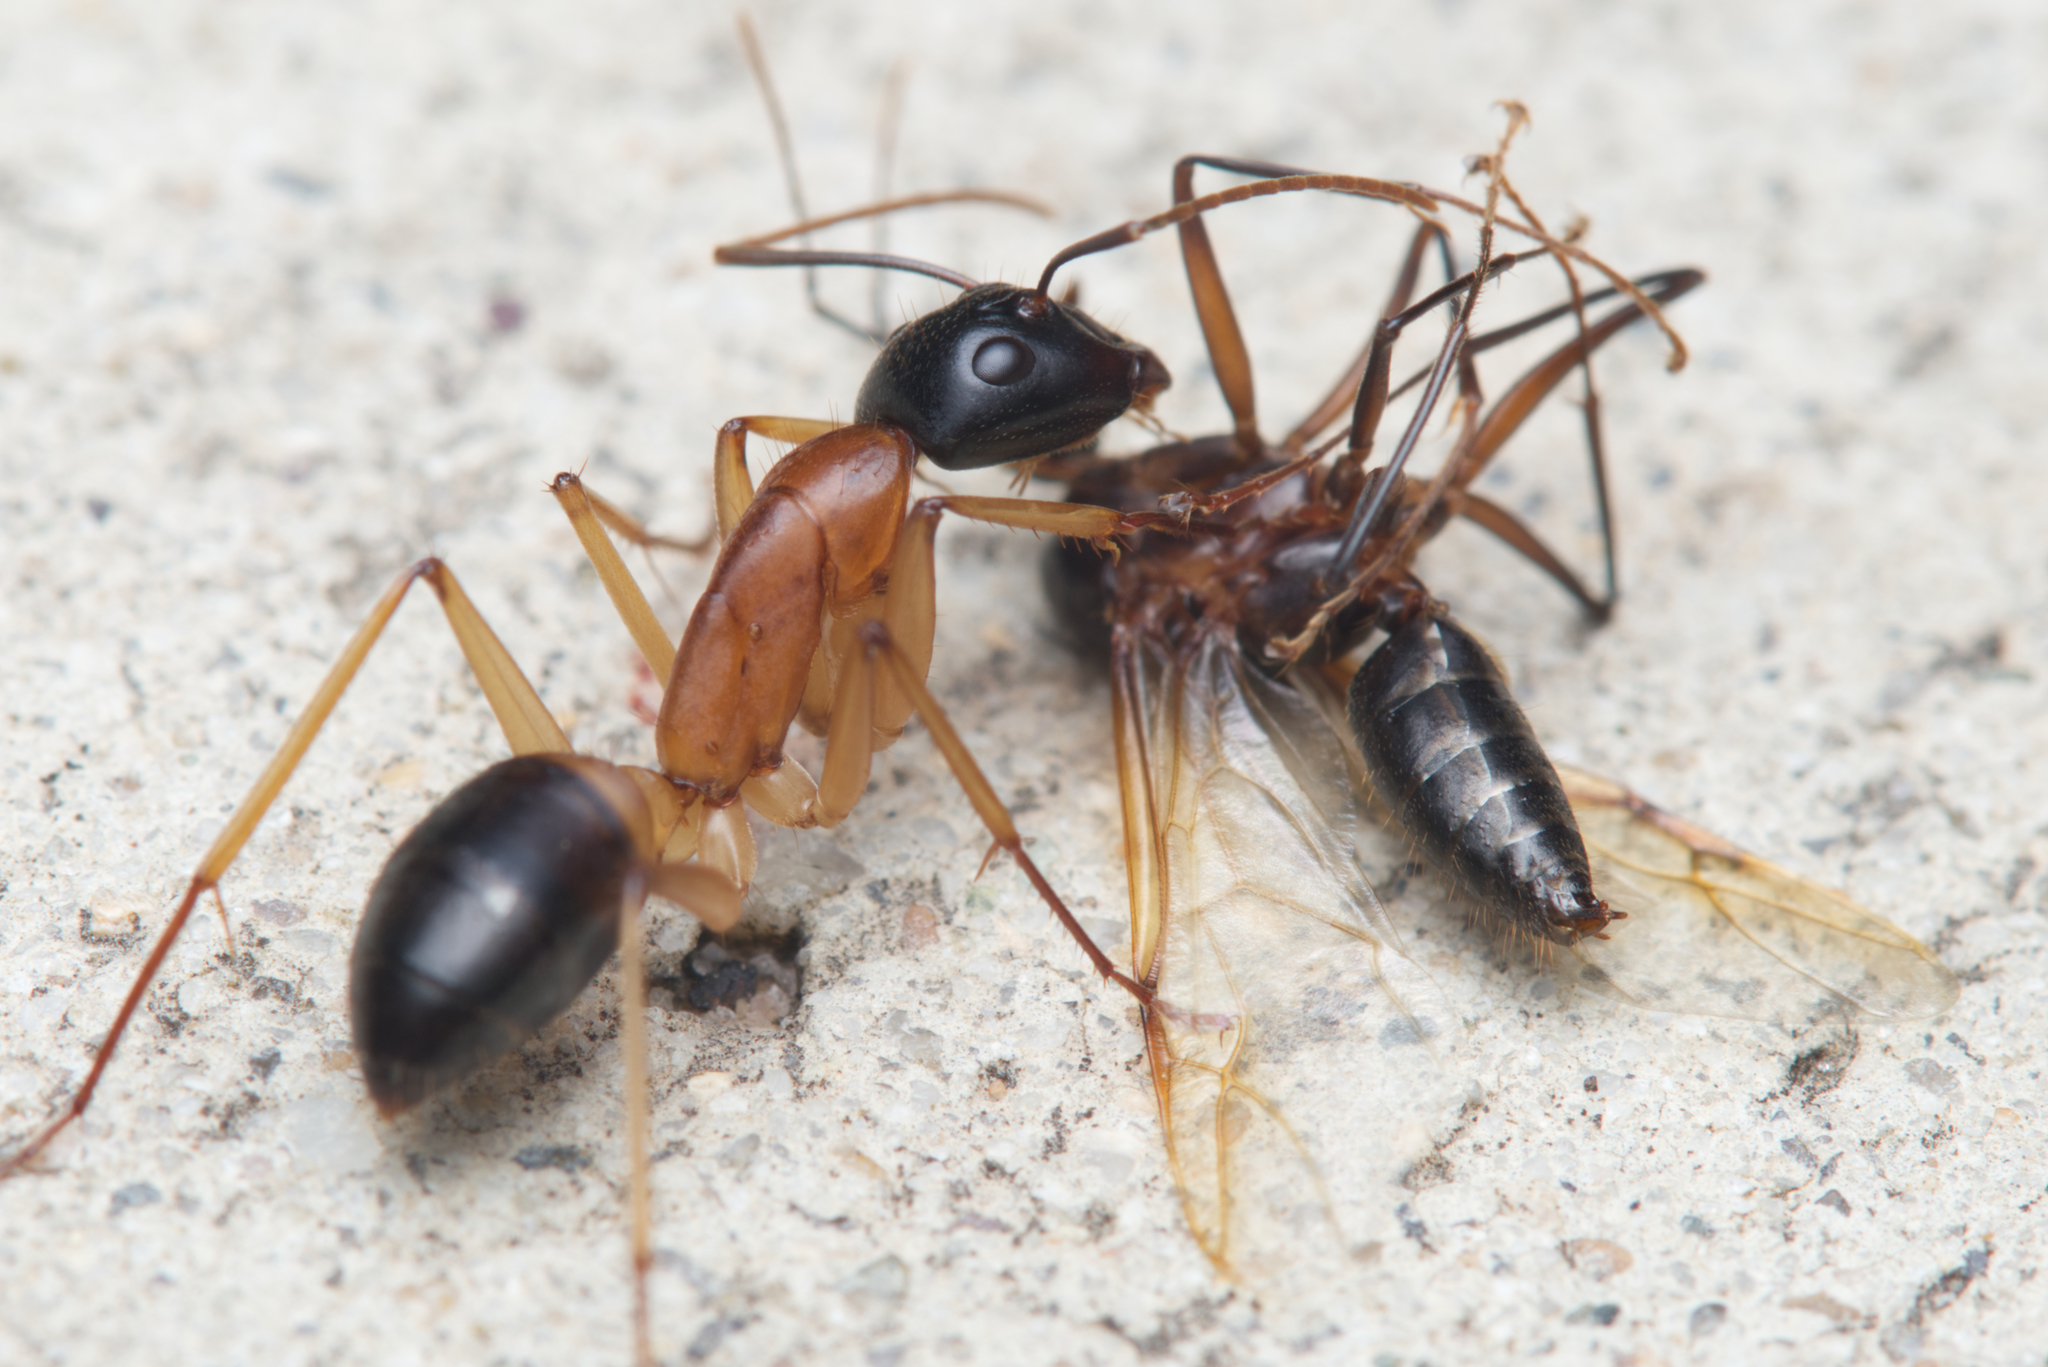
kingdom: Animalia
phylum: Arthropoda
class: Insecta
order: Hymenoptera
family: Formicidae
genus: Camponotus
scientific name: Camponotus consobrinus
